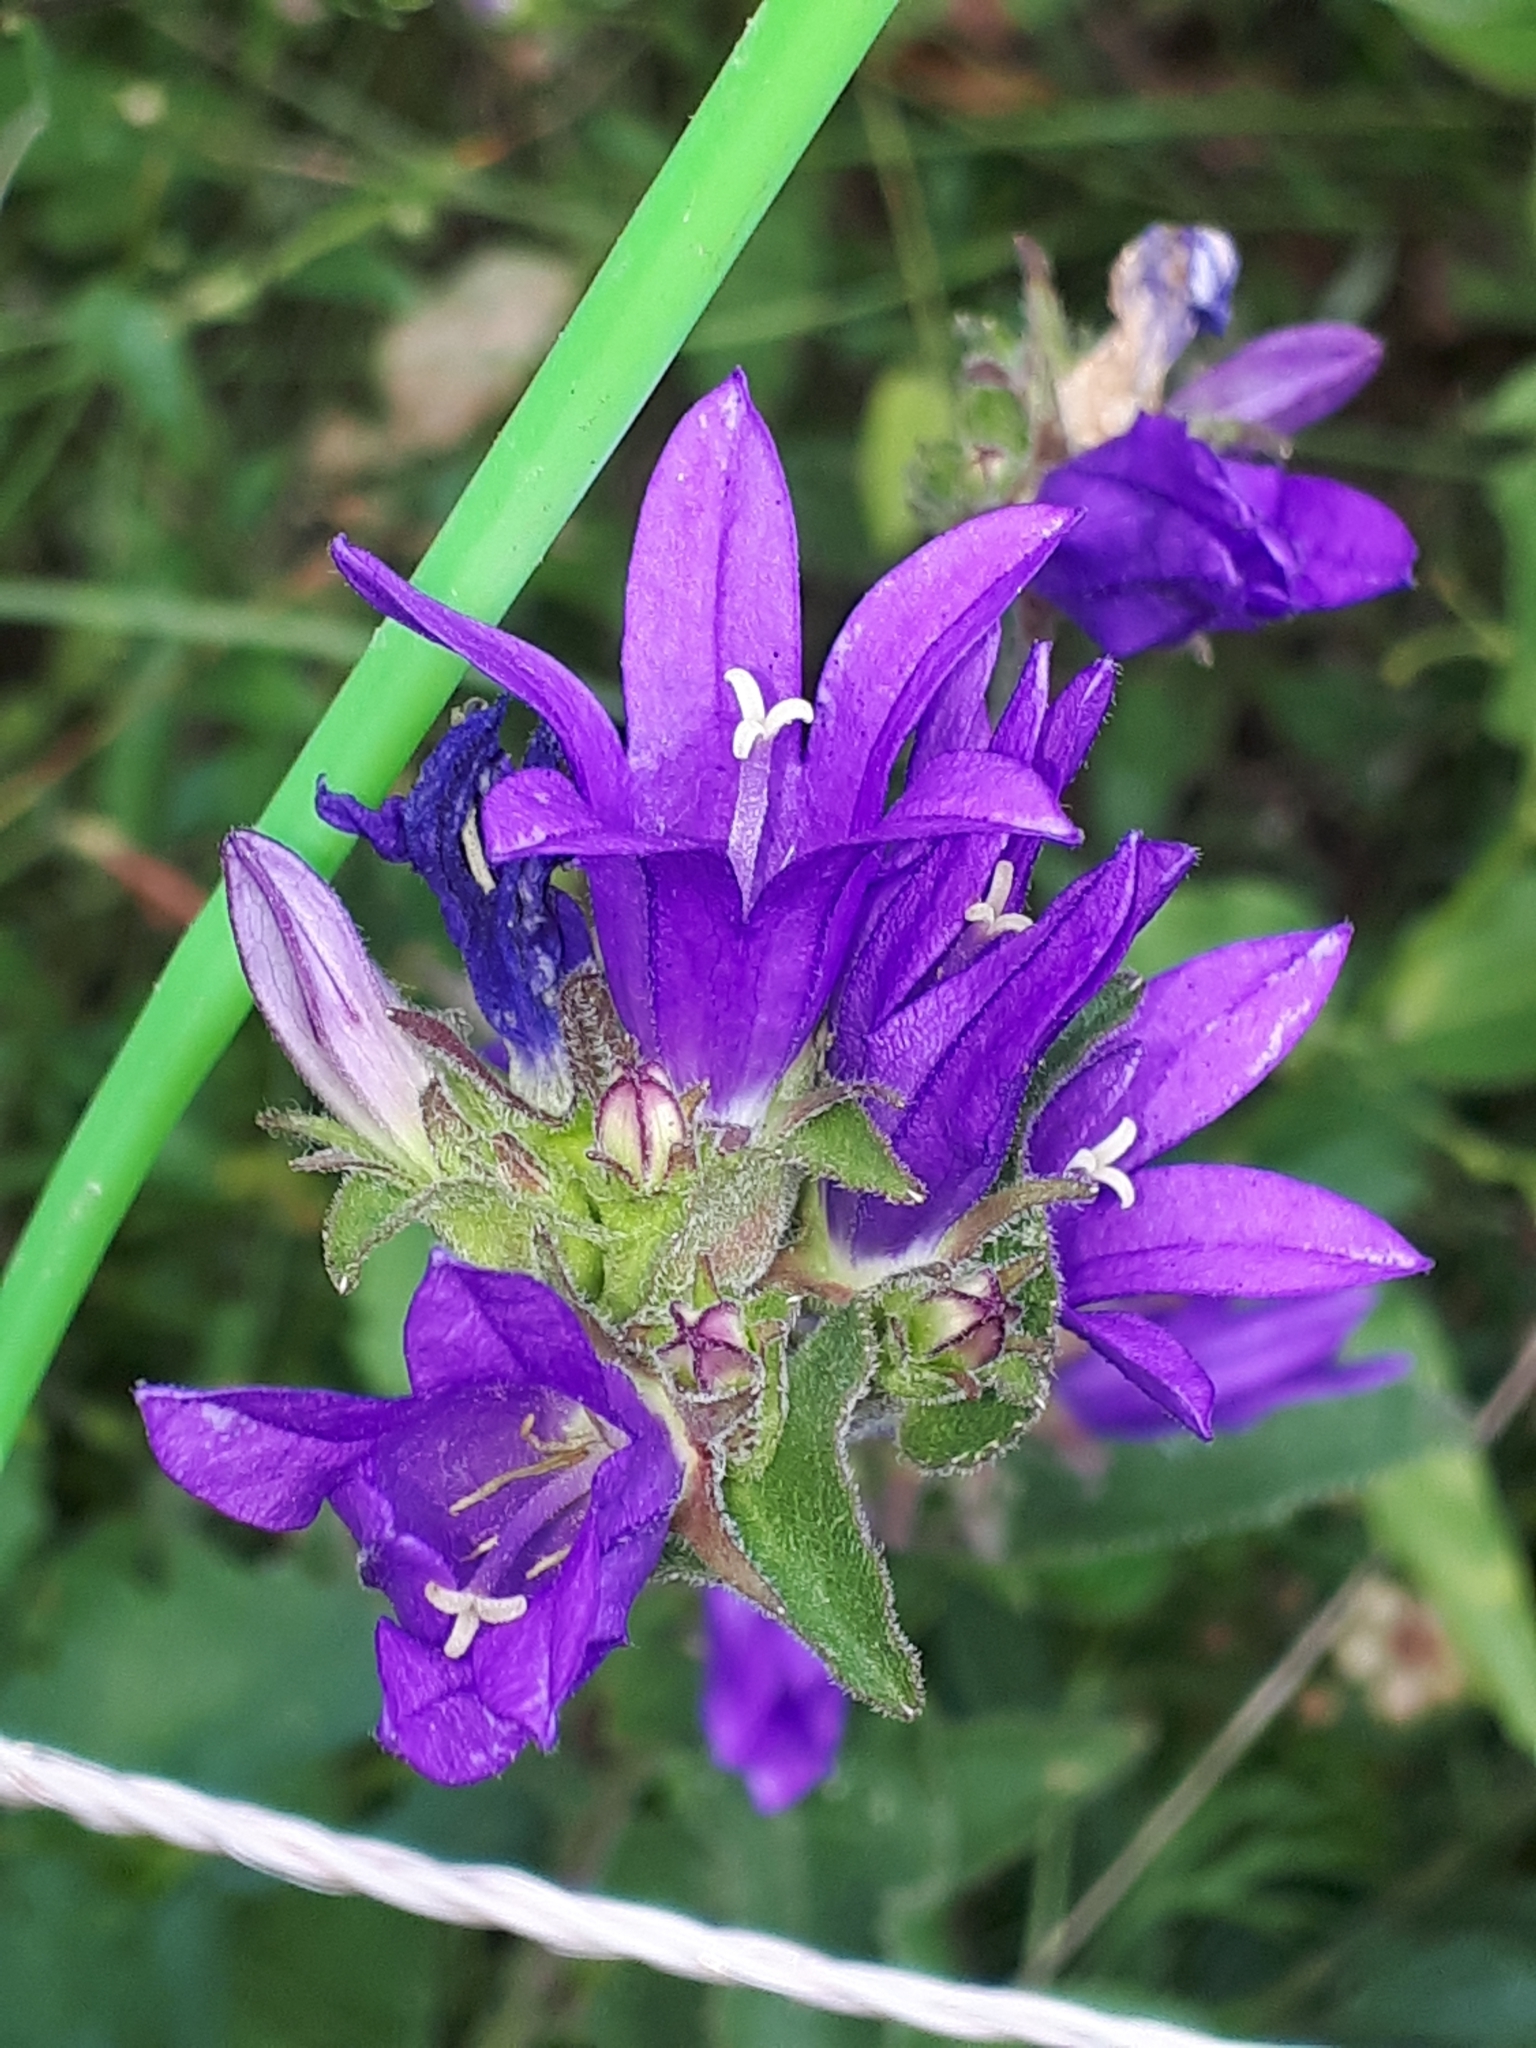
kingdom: Plantae
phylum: Tracheophyta
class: Magnoliopsida
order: Asterales
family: Campanulaceae
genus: Campanula
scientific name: Campanula glomerata
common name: Clustered bellflower
